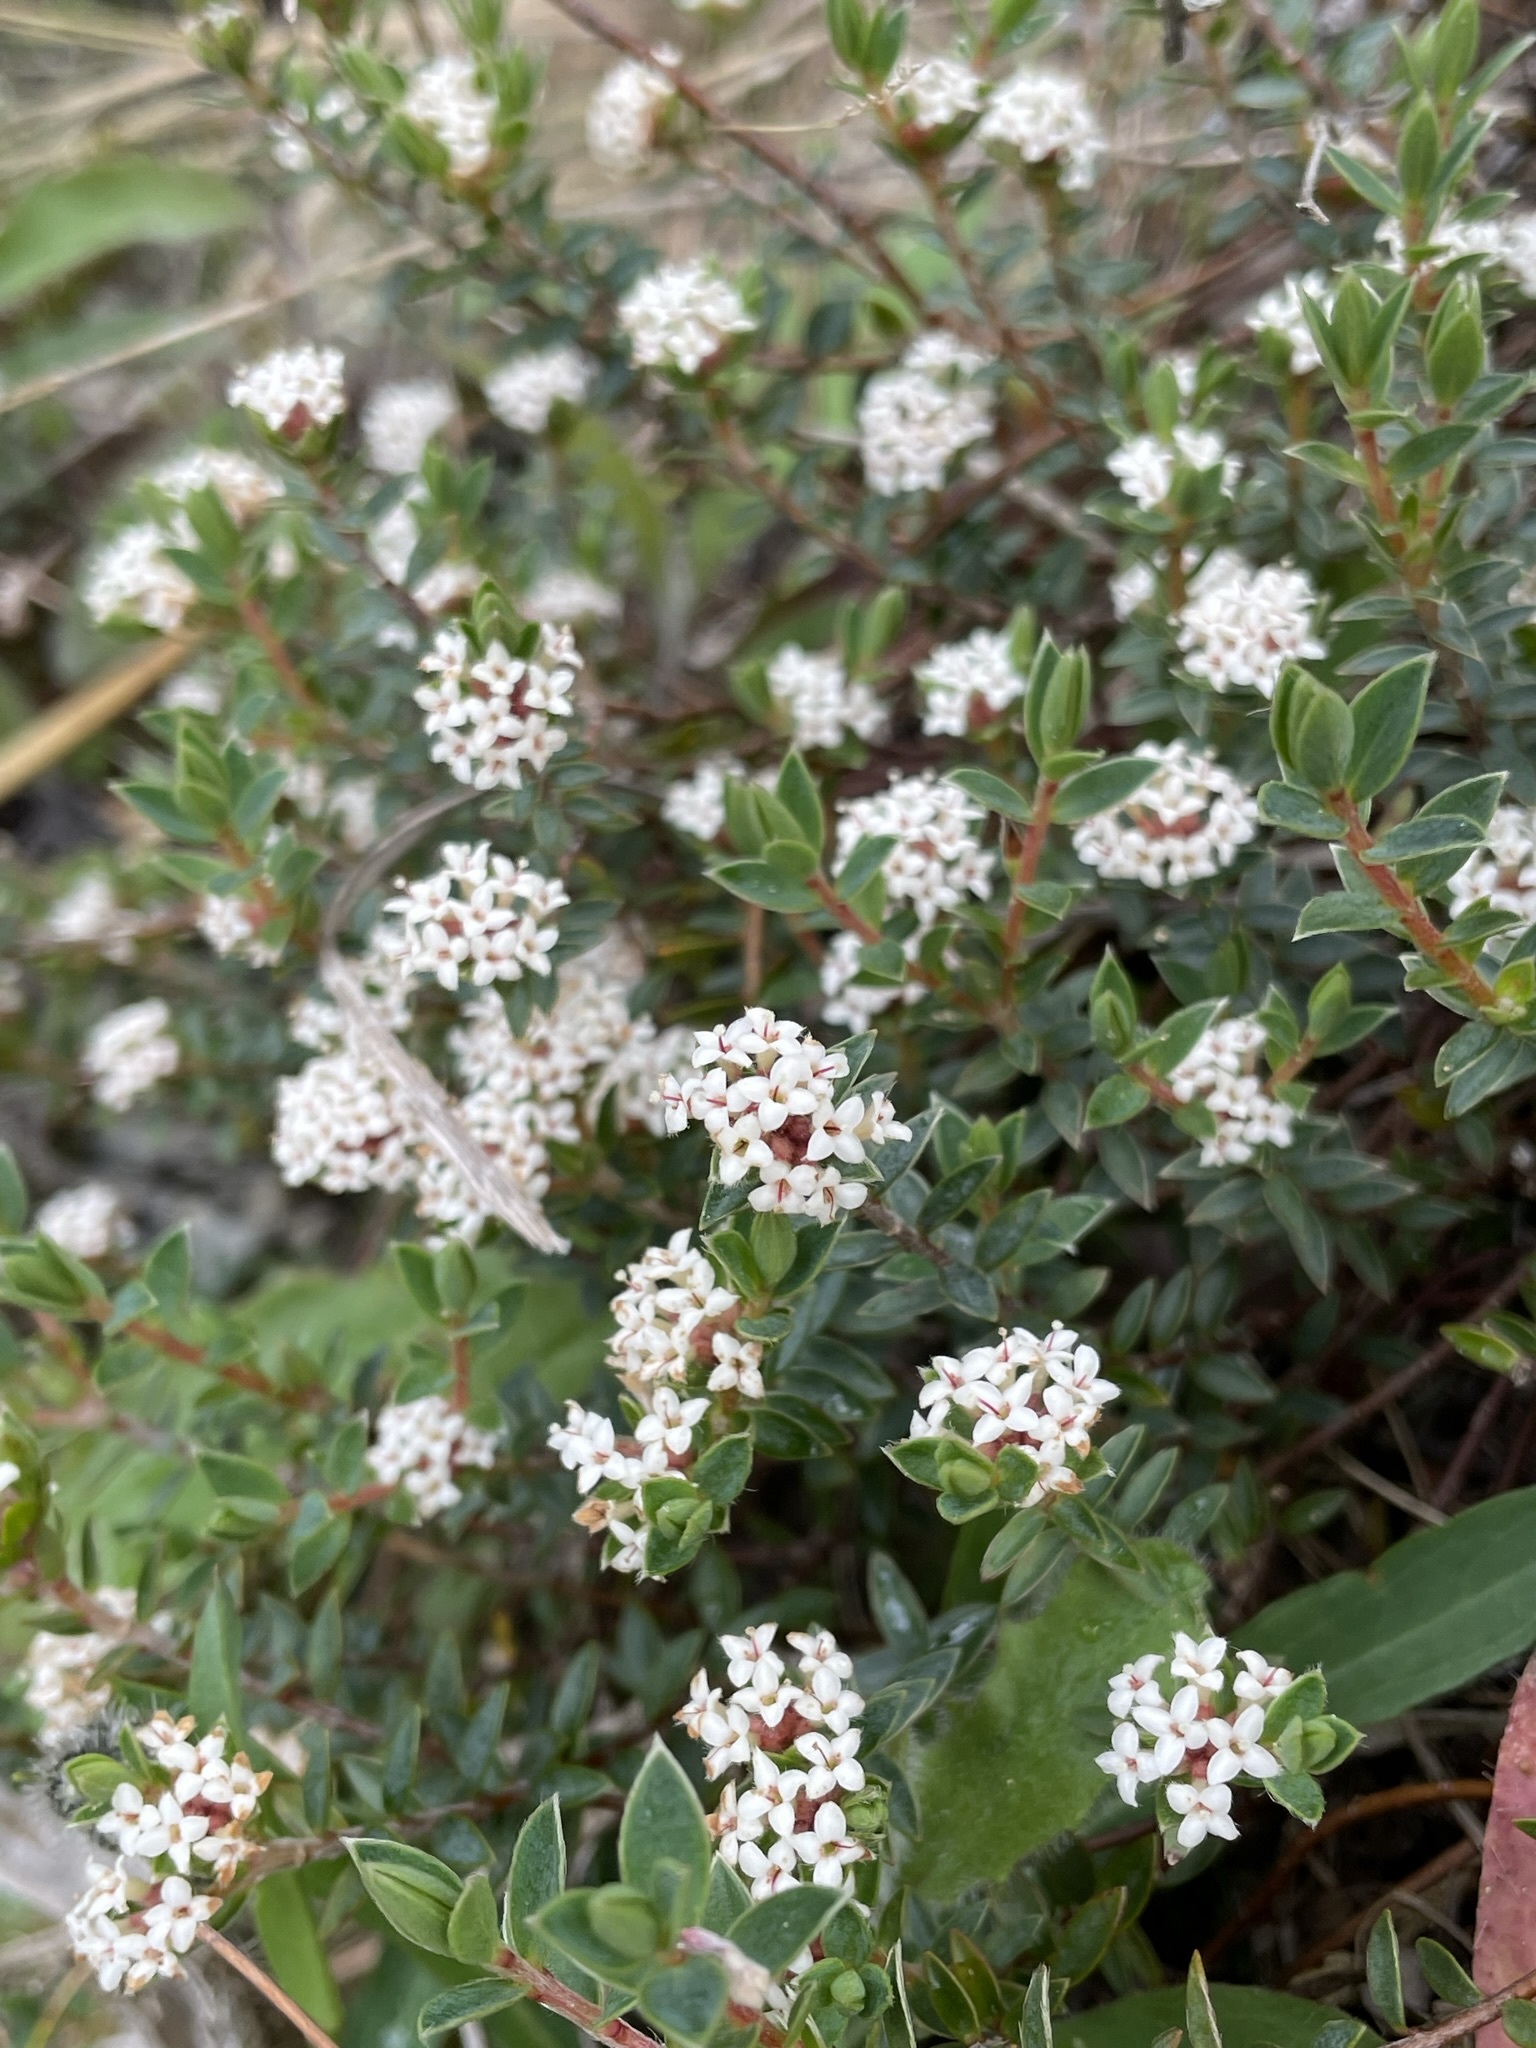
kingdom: Plantae
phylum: Tracheophyta
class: Magnoliopsida
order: Malvales
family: Thymelaeaceae
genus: Pimelea
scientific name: Pimelea oreophila
